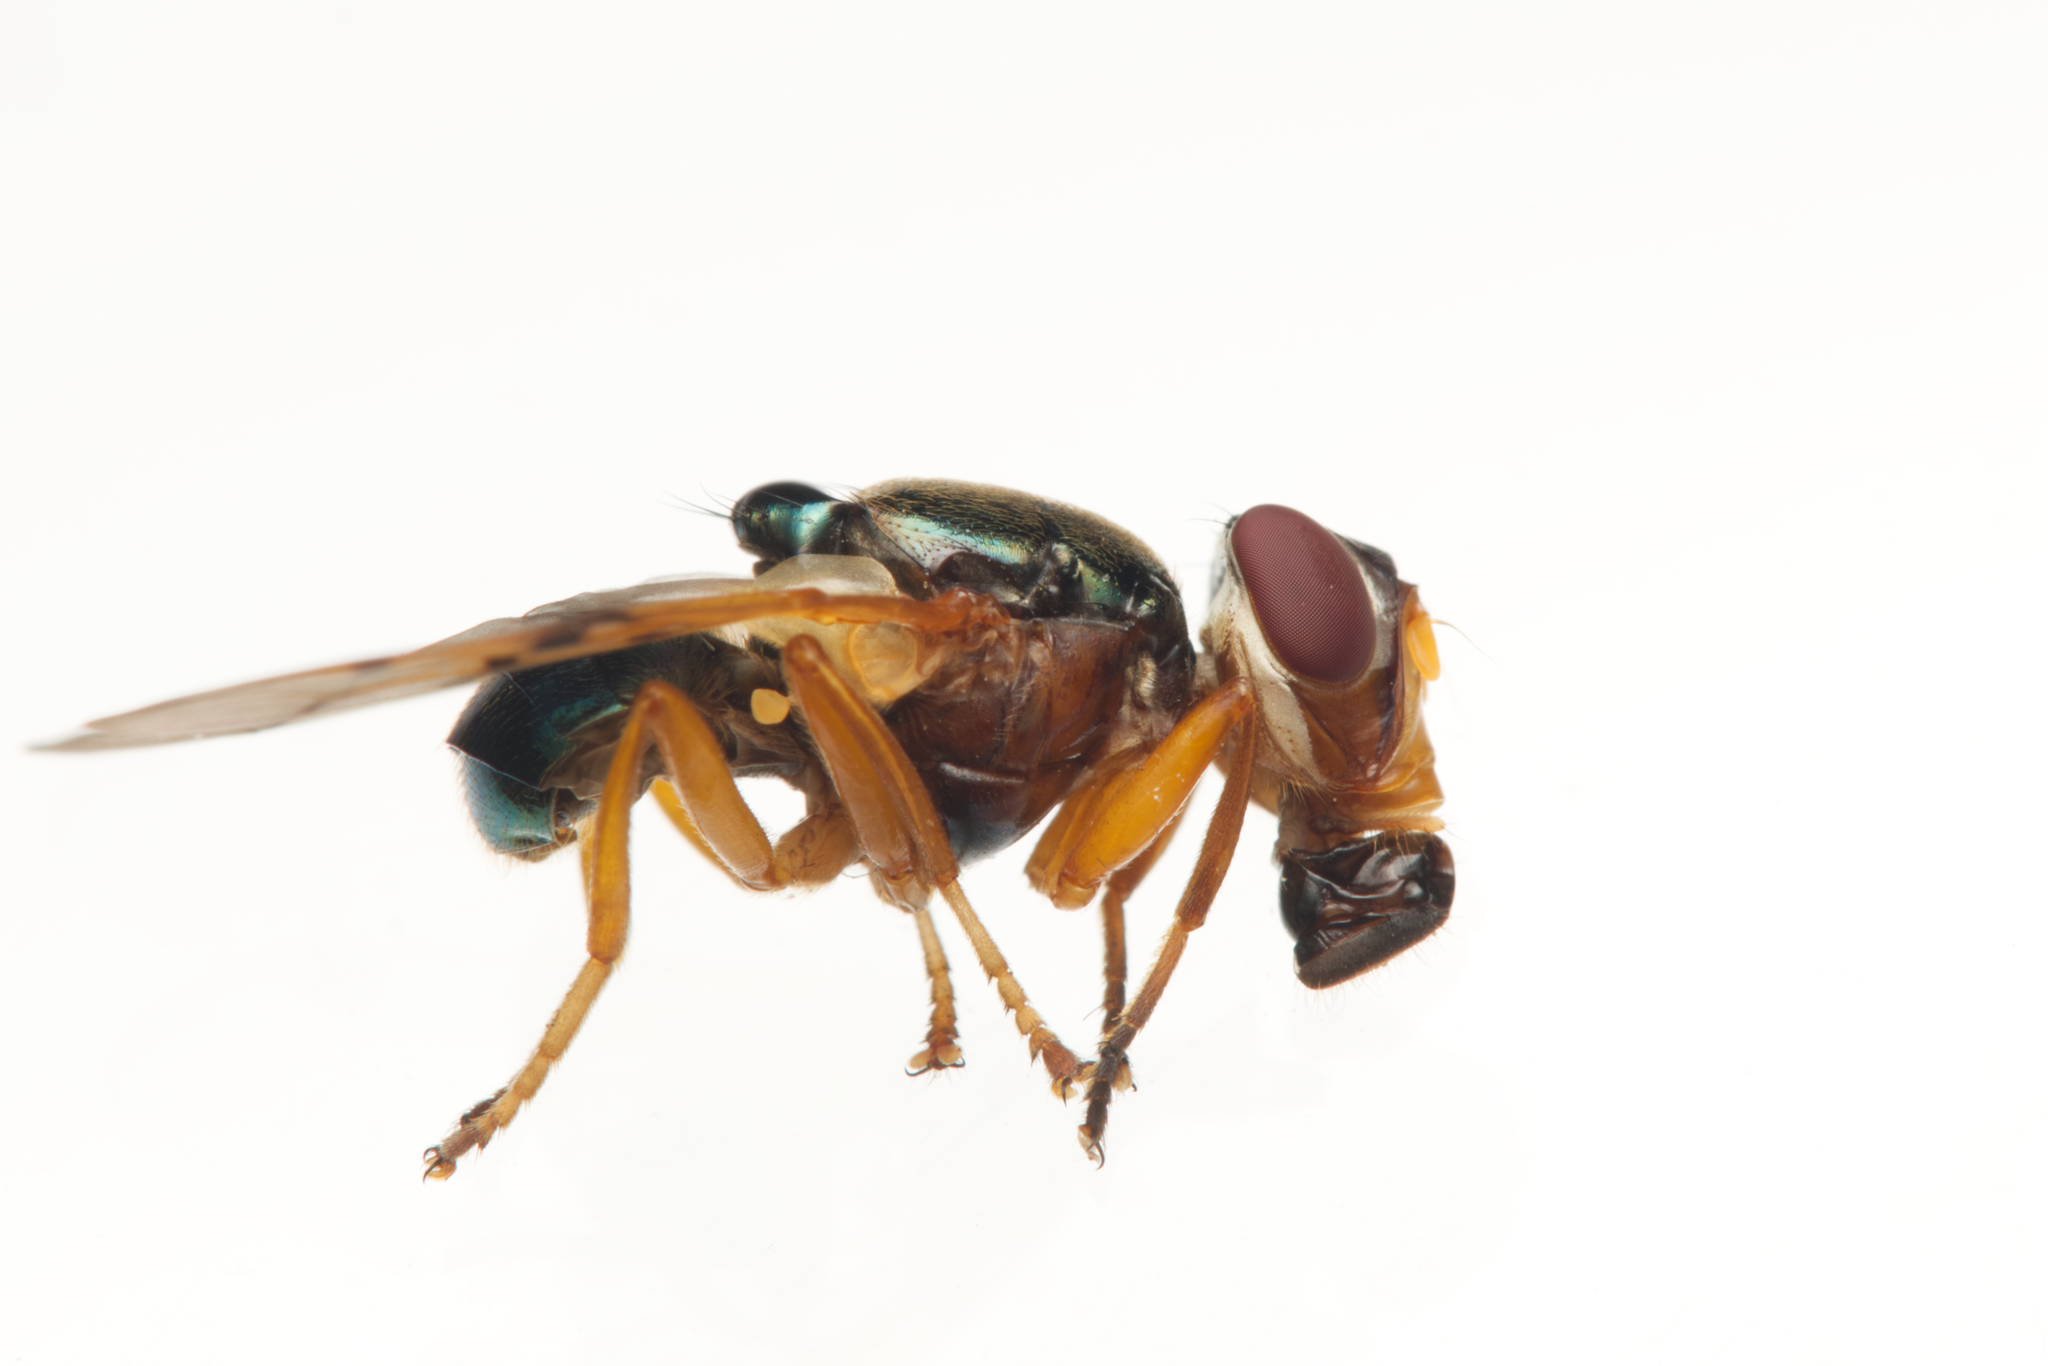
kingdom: Animalia
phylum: Arthropoda
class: Insecta
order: Diptera
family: Platystomatidae
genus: Lamprogaster
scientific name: Lamprogaster imperialis
